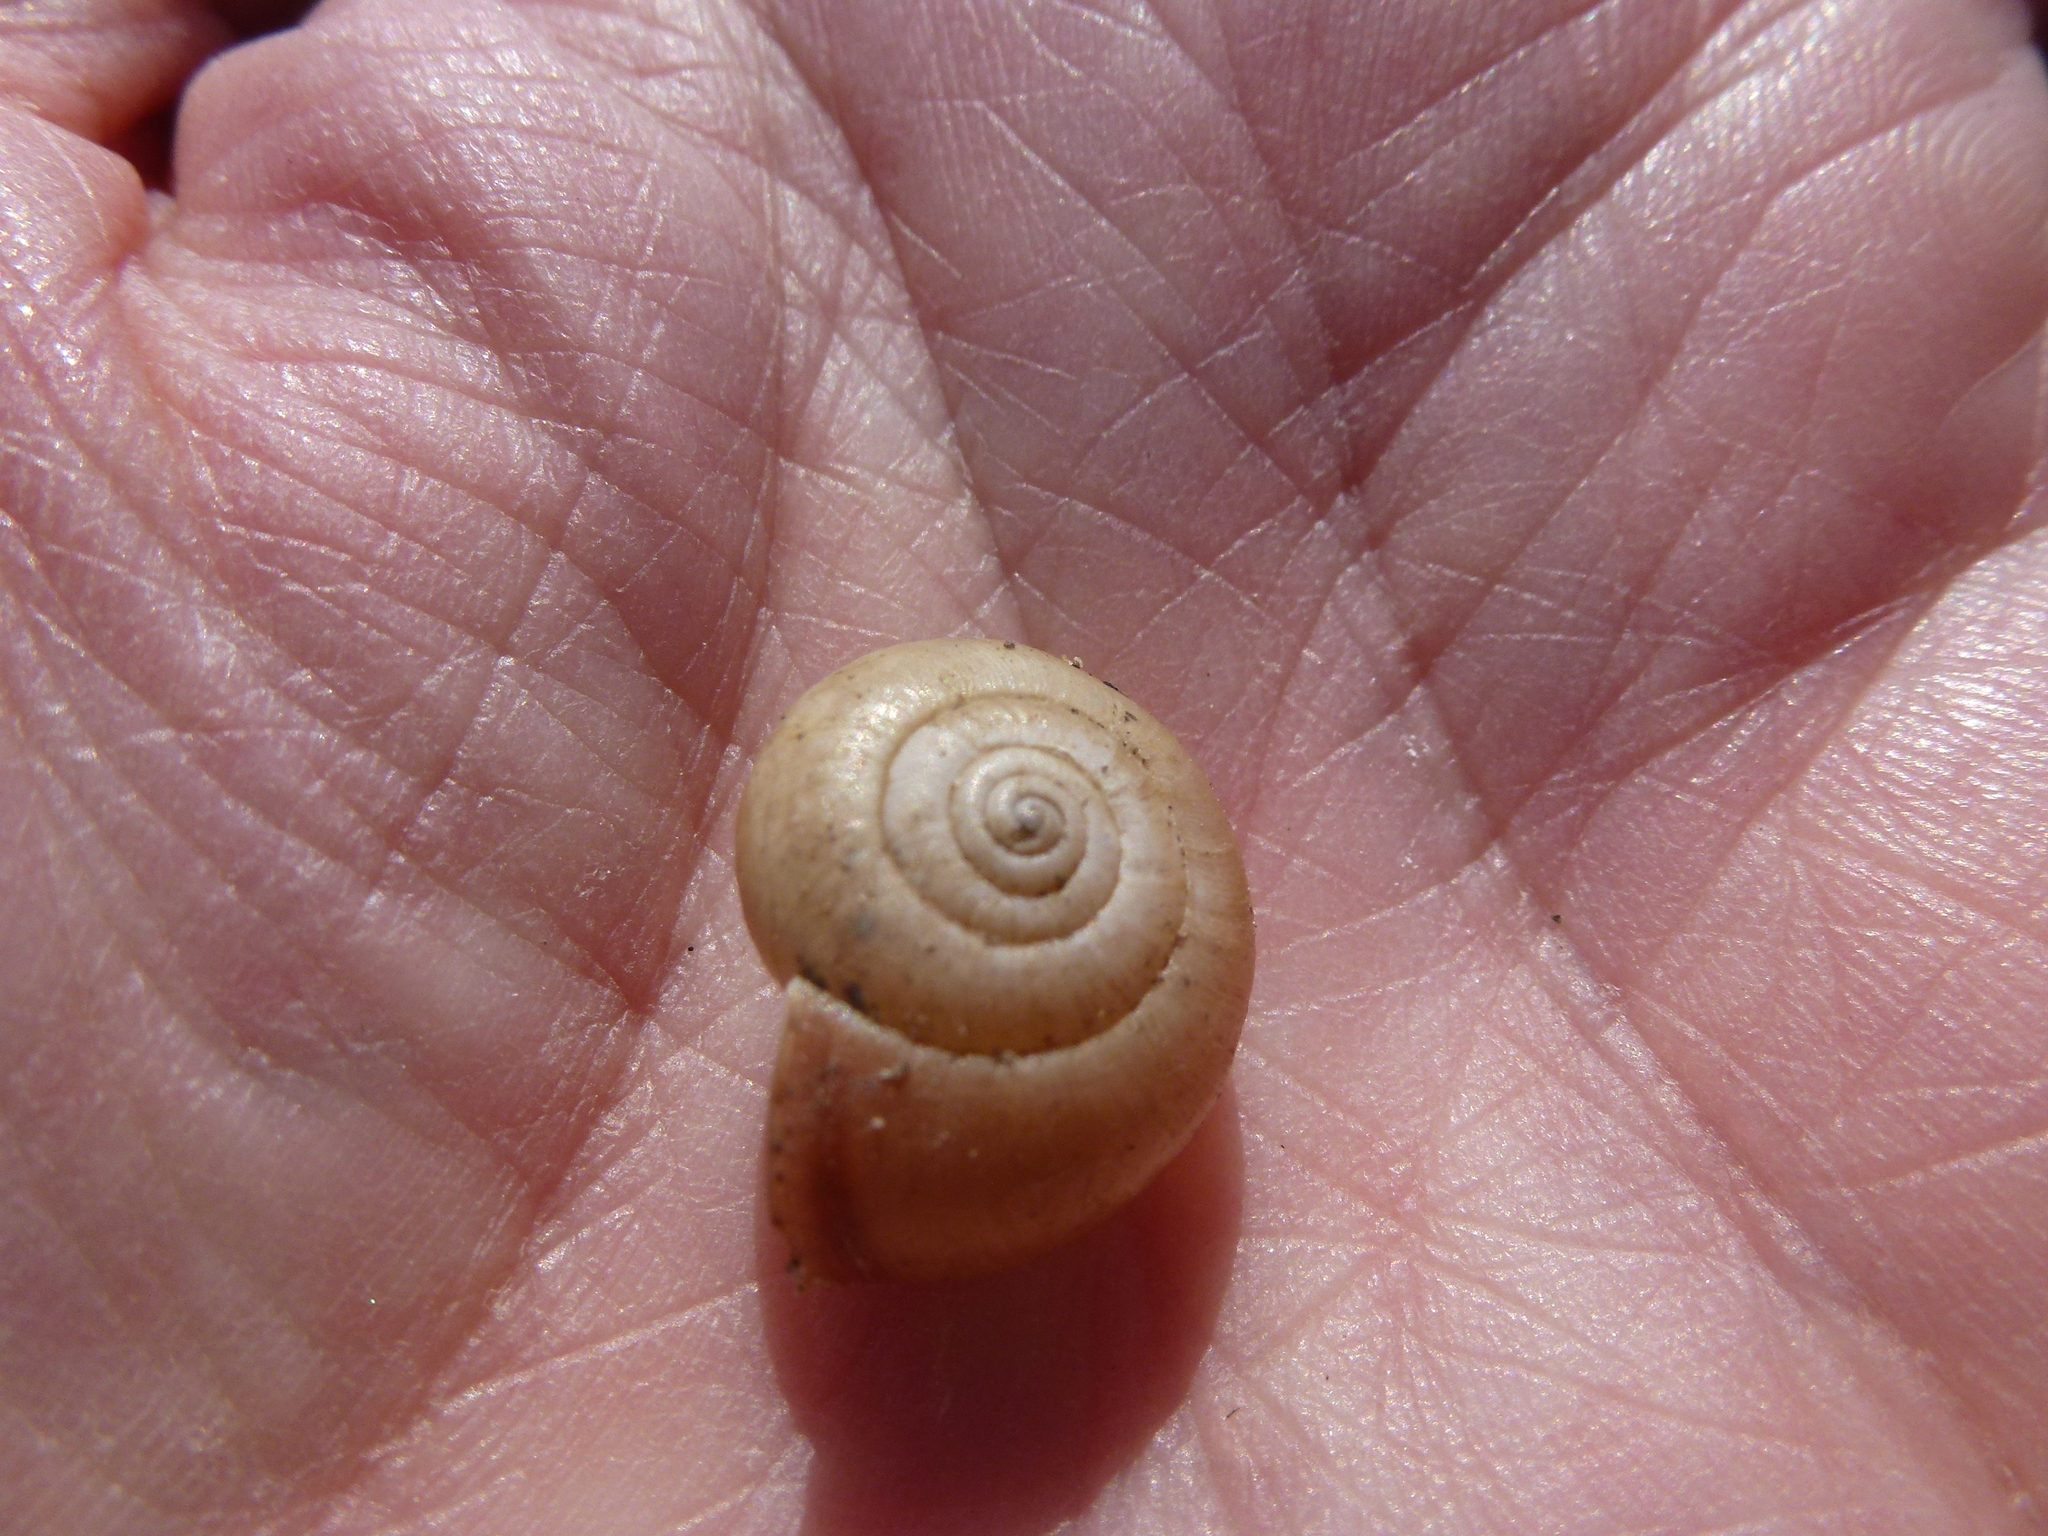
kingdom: Animalia
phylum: Mollusca
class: Gastropoda
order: Stylommatophora
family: Hygromiidae
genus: Monacha
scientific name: Monacha cantiana
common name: Kentish snail
